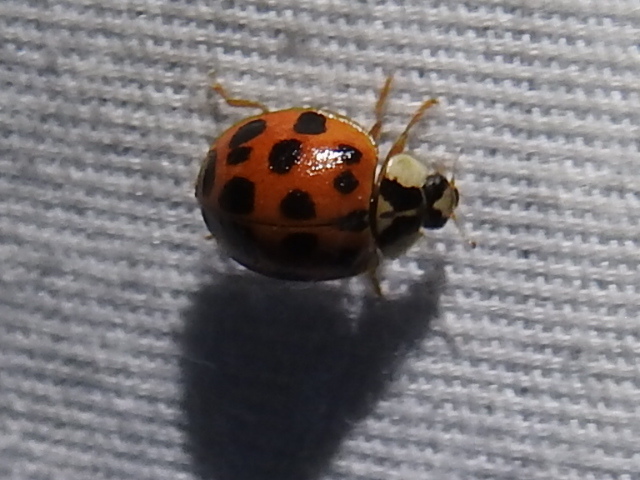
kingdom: Animalia
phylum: Arthropoda
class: Insecta
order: Coleoptera
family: Coccinellidae
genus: Harmonia
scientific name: Harmonia axyridis
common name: Harlequin ladybird
